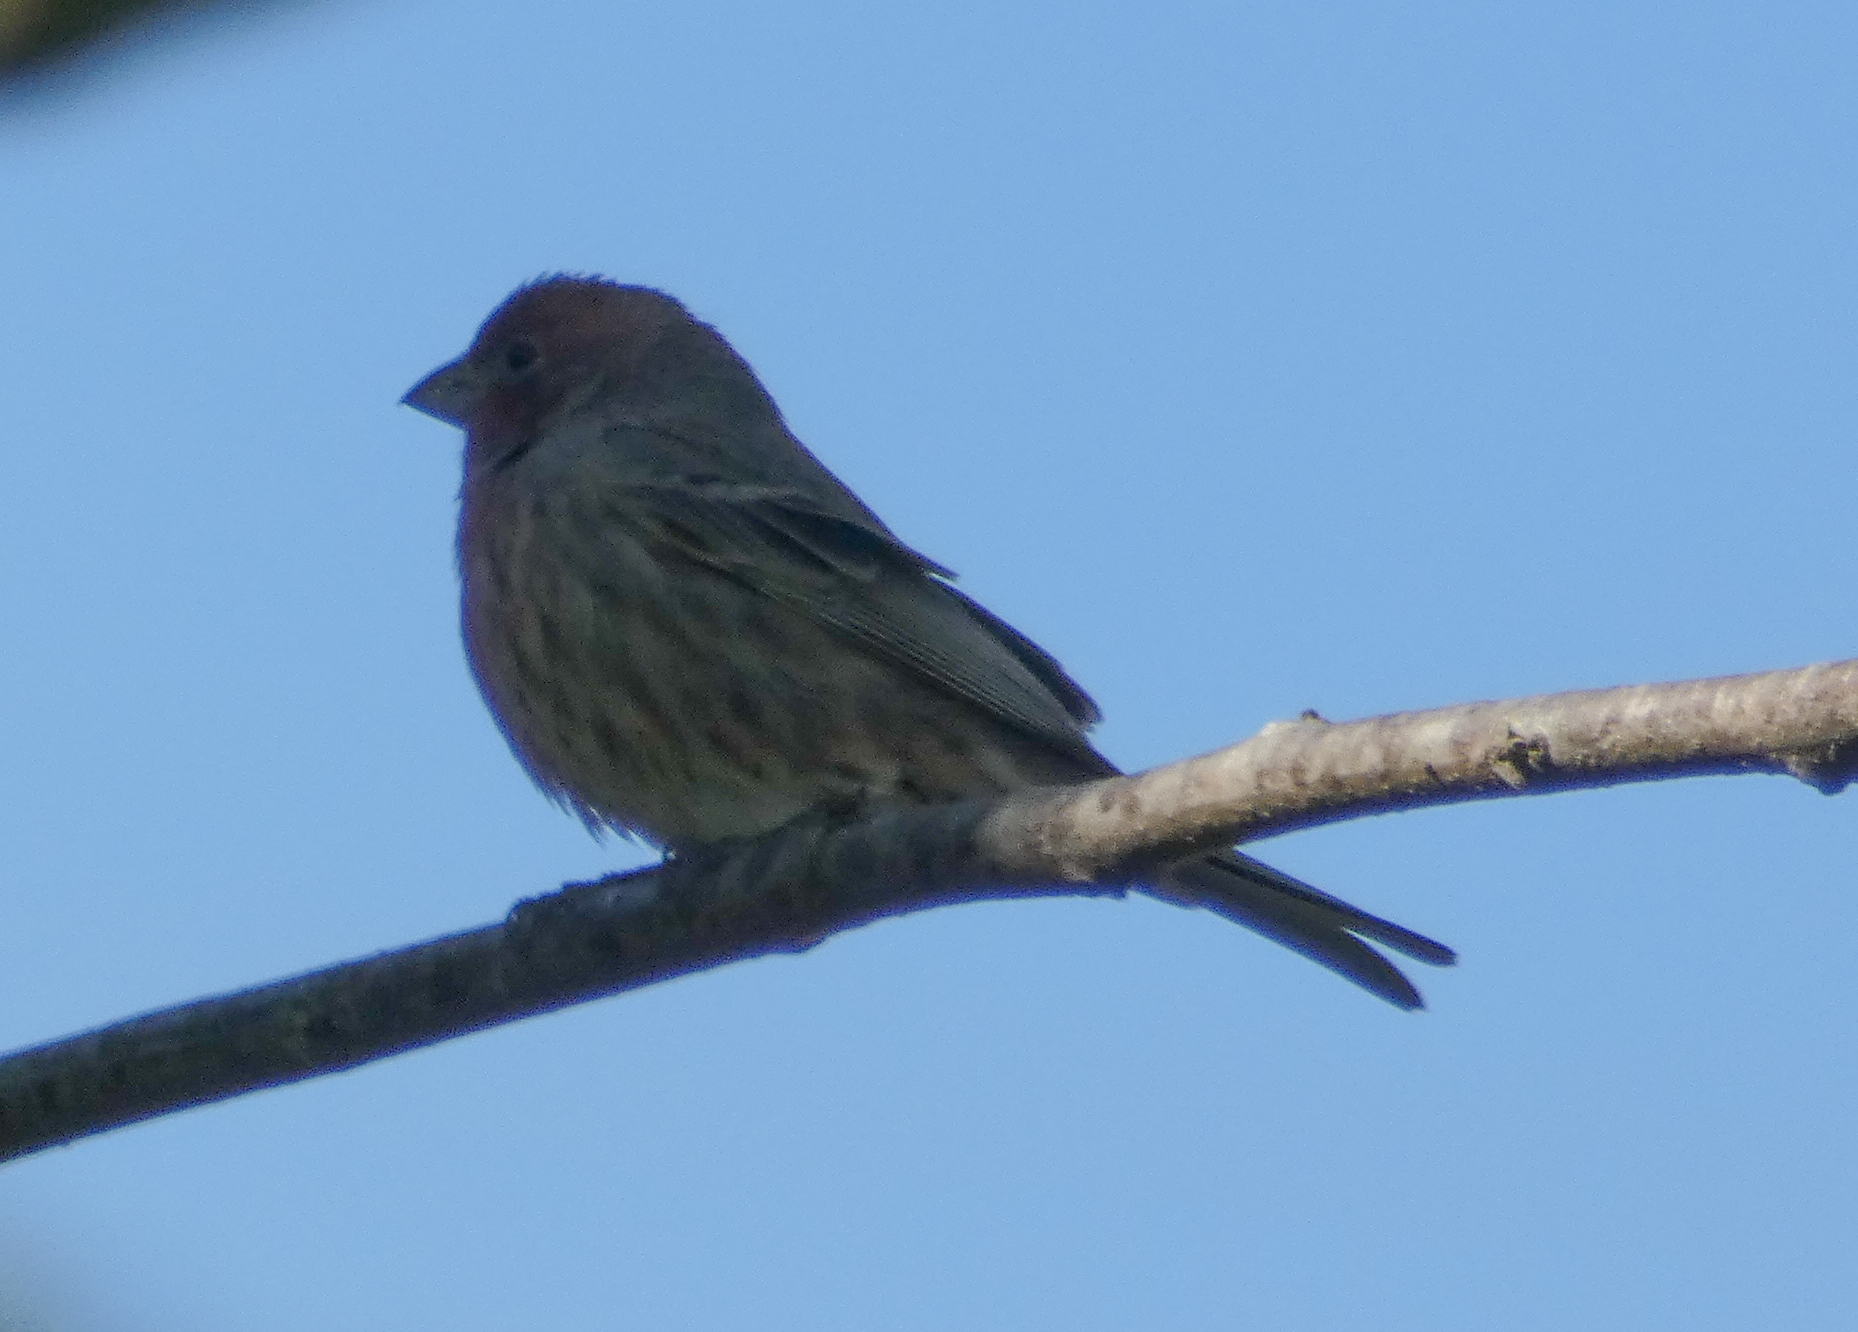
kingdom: Animalia
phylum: Chordata
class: Aves
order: Passeriformes
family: Fringillidae
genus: Haemorhous
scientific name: Haemorhous mexicanus
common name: House finch
